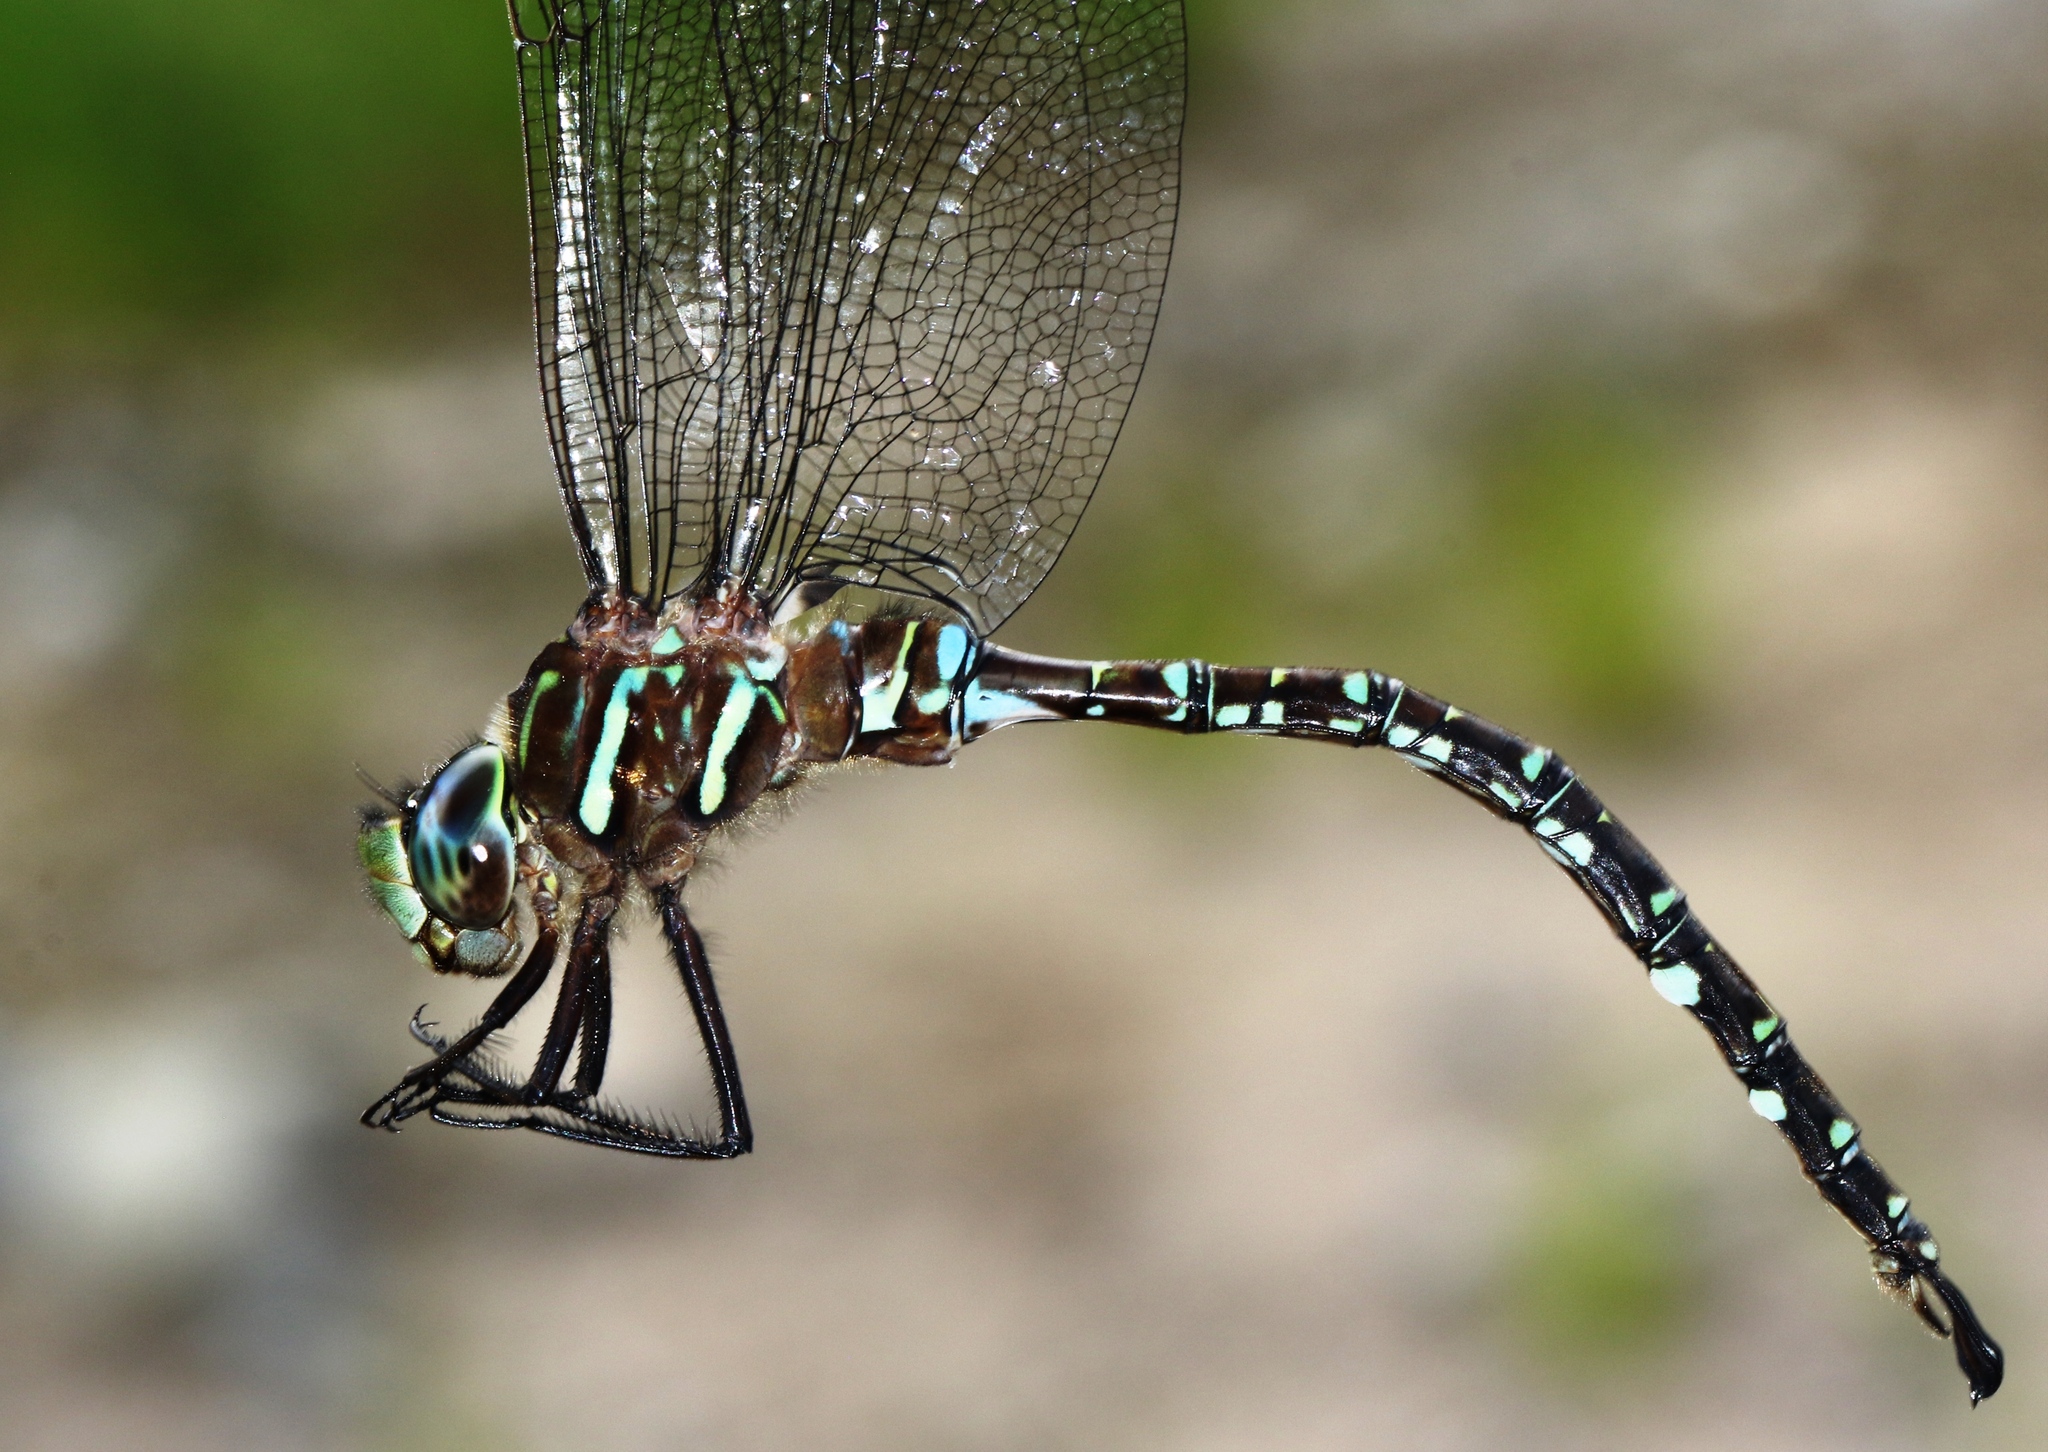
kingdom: Animalia
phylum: Arthropoda
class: Insecta
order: Odonata
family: Aeshnidae
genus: Aeshna
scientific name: Aeshna umbrosa
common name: Shadow darner
